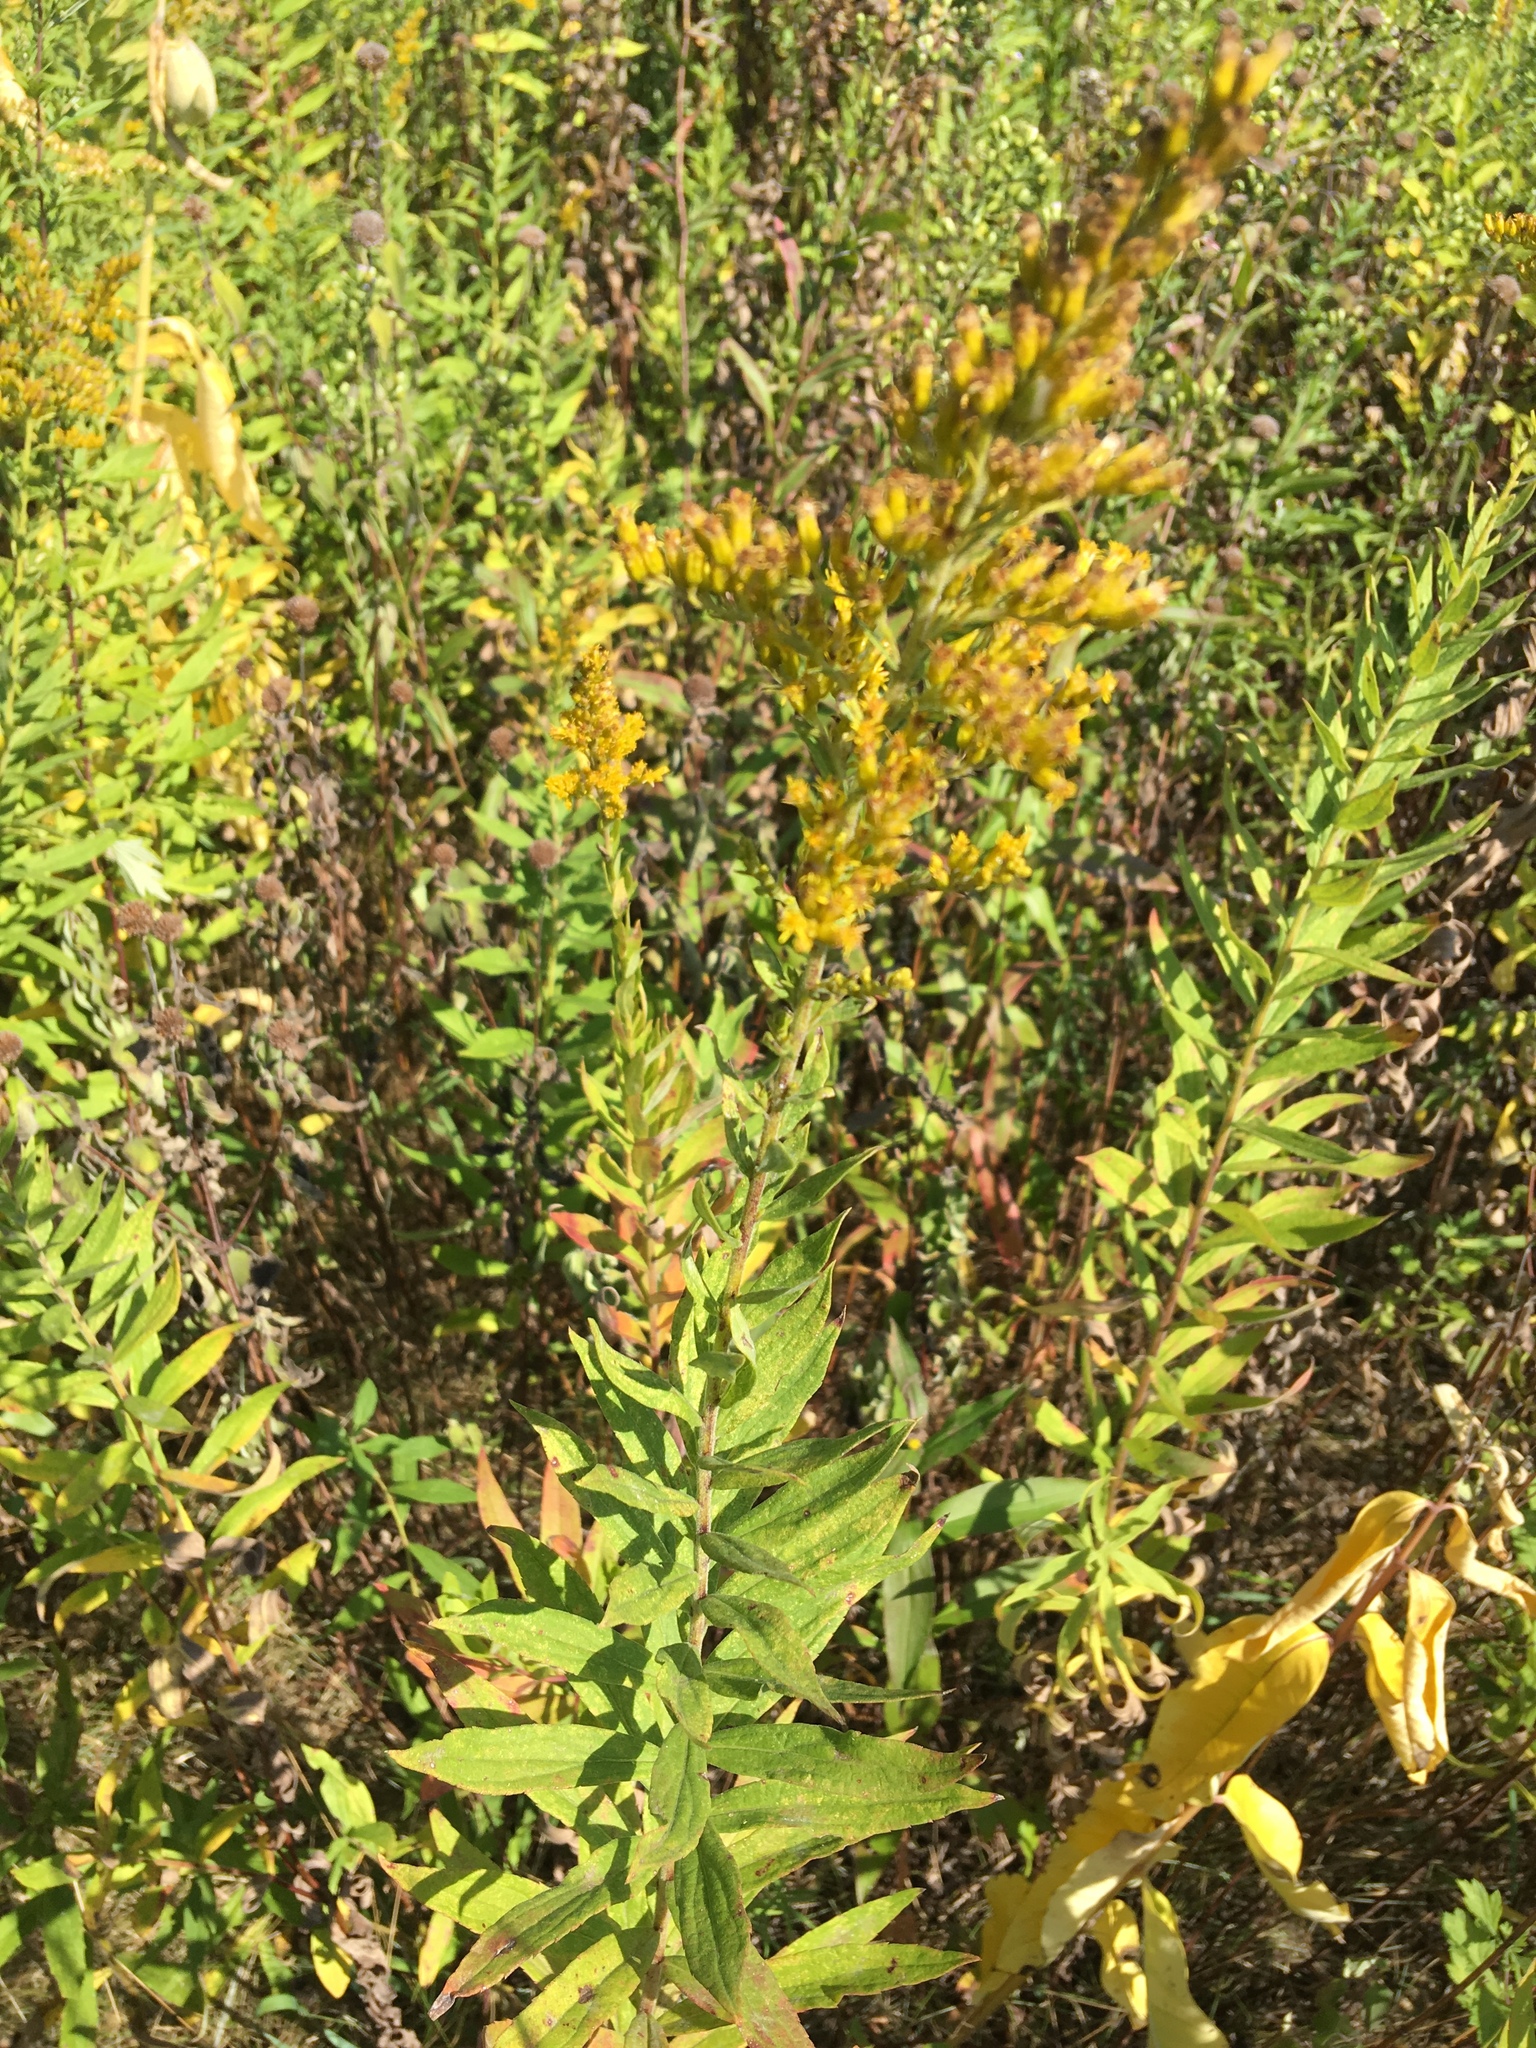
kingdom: Plantae
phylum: Tracheophyta
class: Magnoliopsida
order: Asterales
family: Asteraceae
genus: Solidago
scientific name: Solidago rugosa
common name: Rough-stemmed goldenrod
